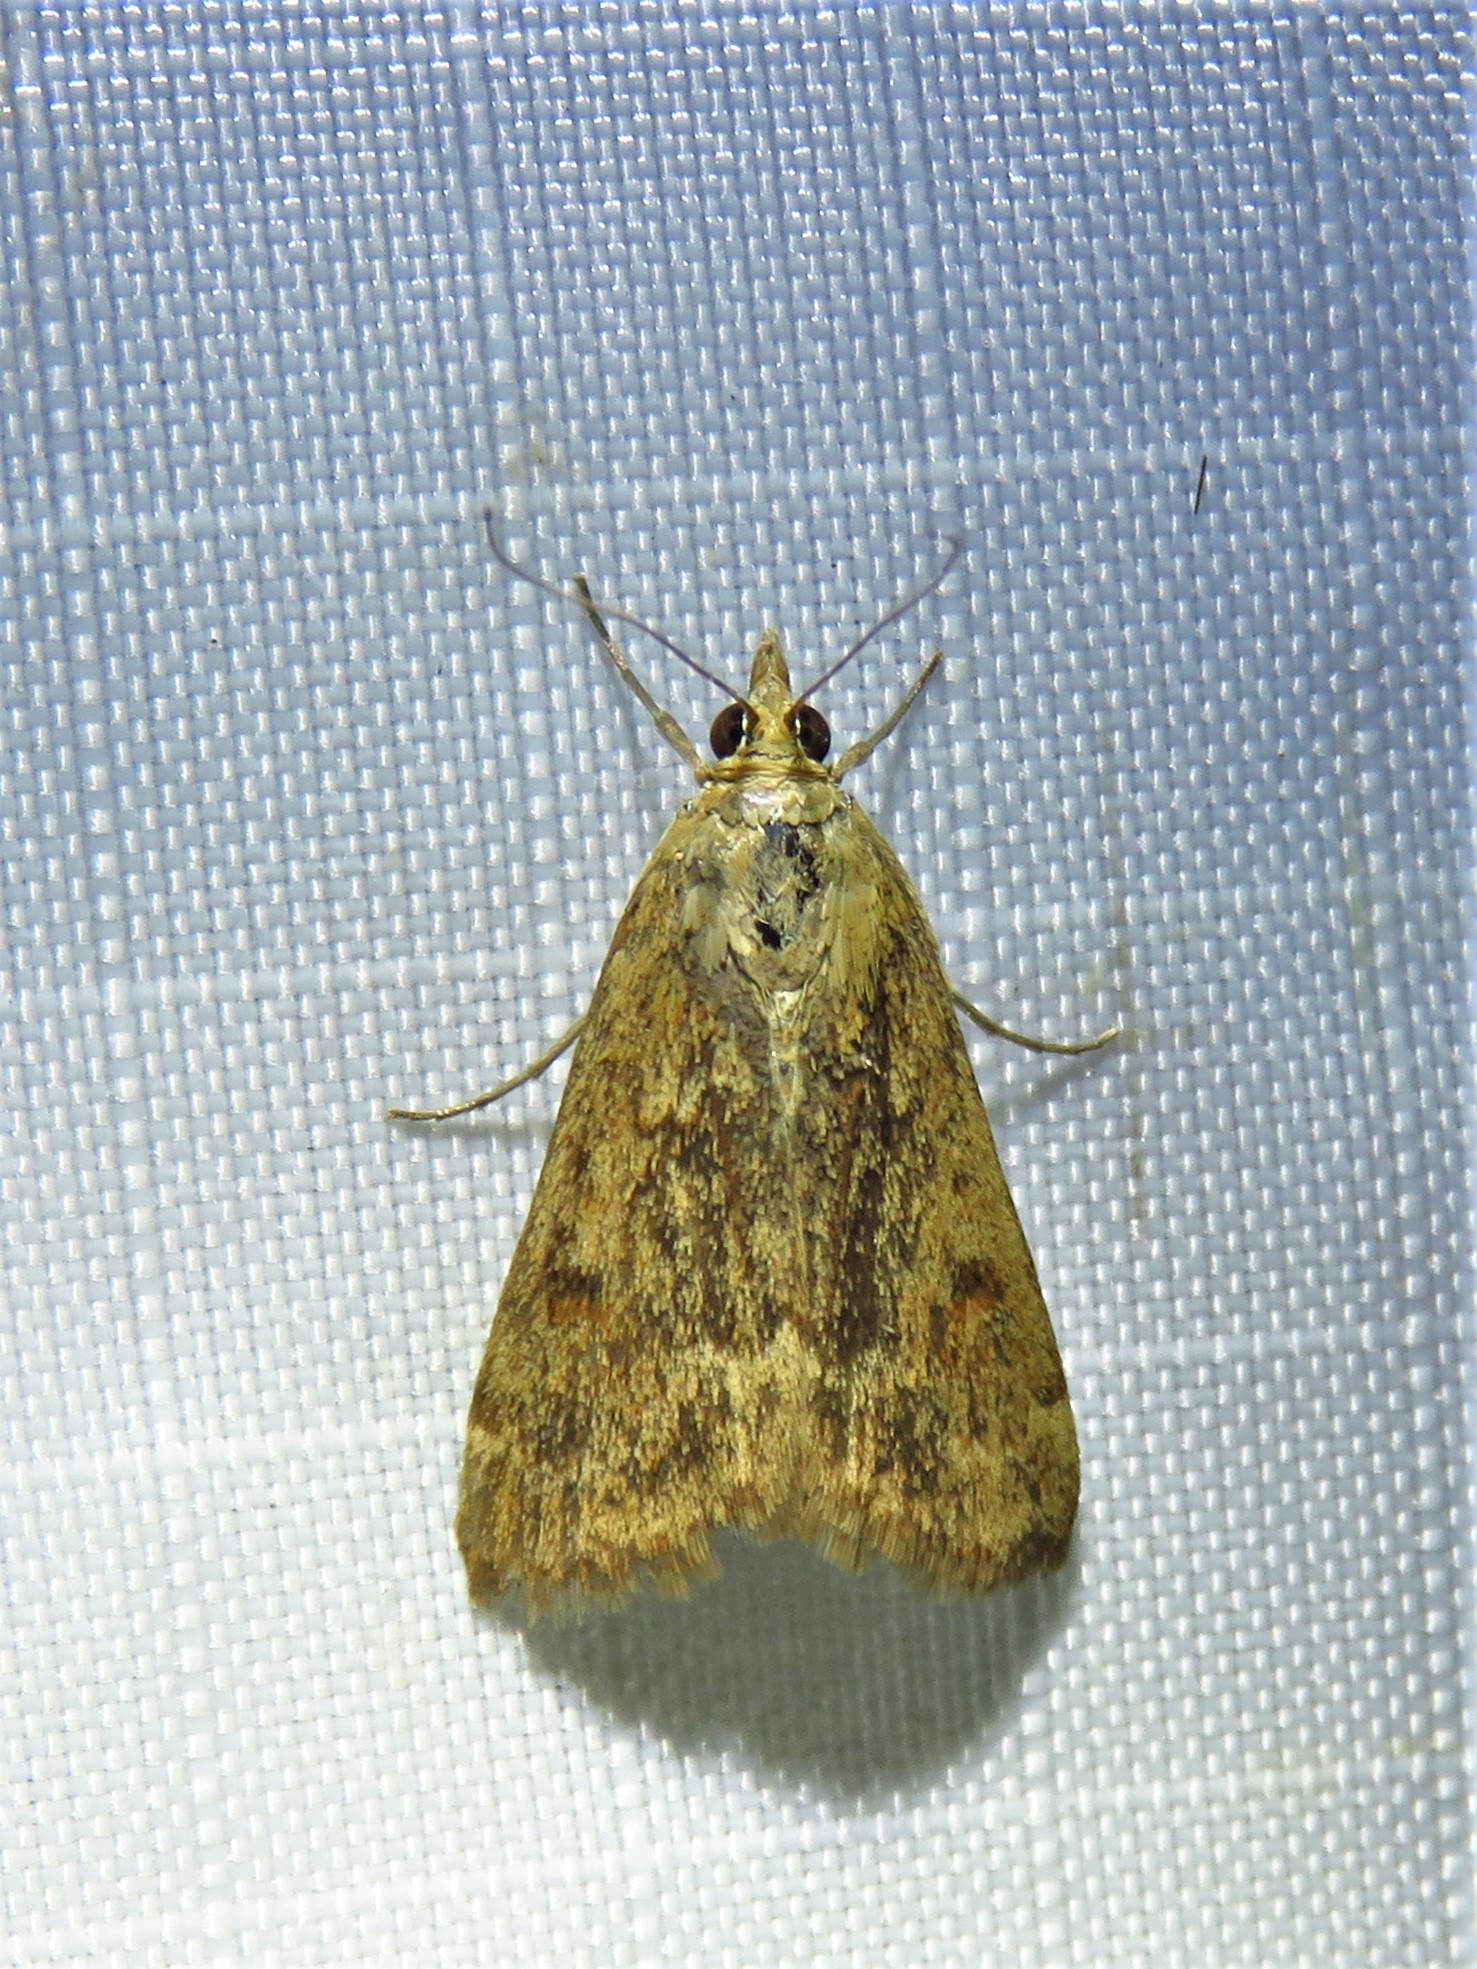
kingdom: Animalia
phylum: Arthropoda
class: Insecta
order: Lepidoptera
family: Crambidae
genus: Achyra
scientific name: Achyra rantalis
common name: Garden webworm
